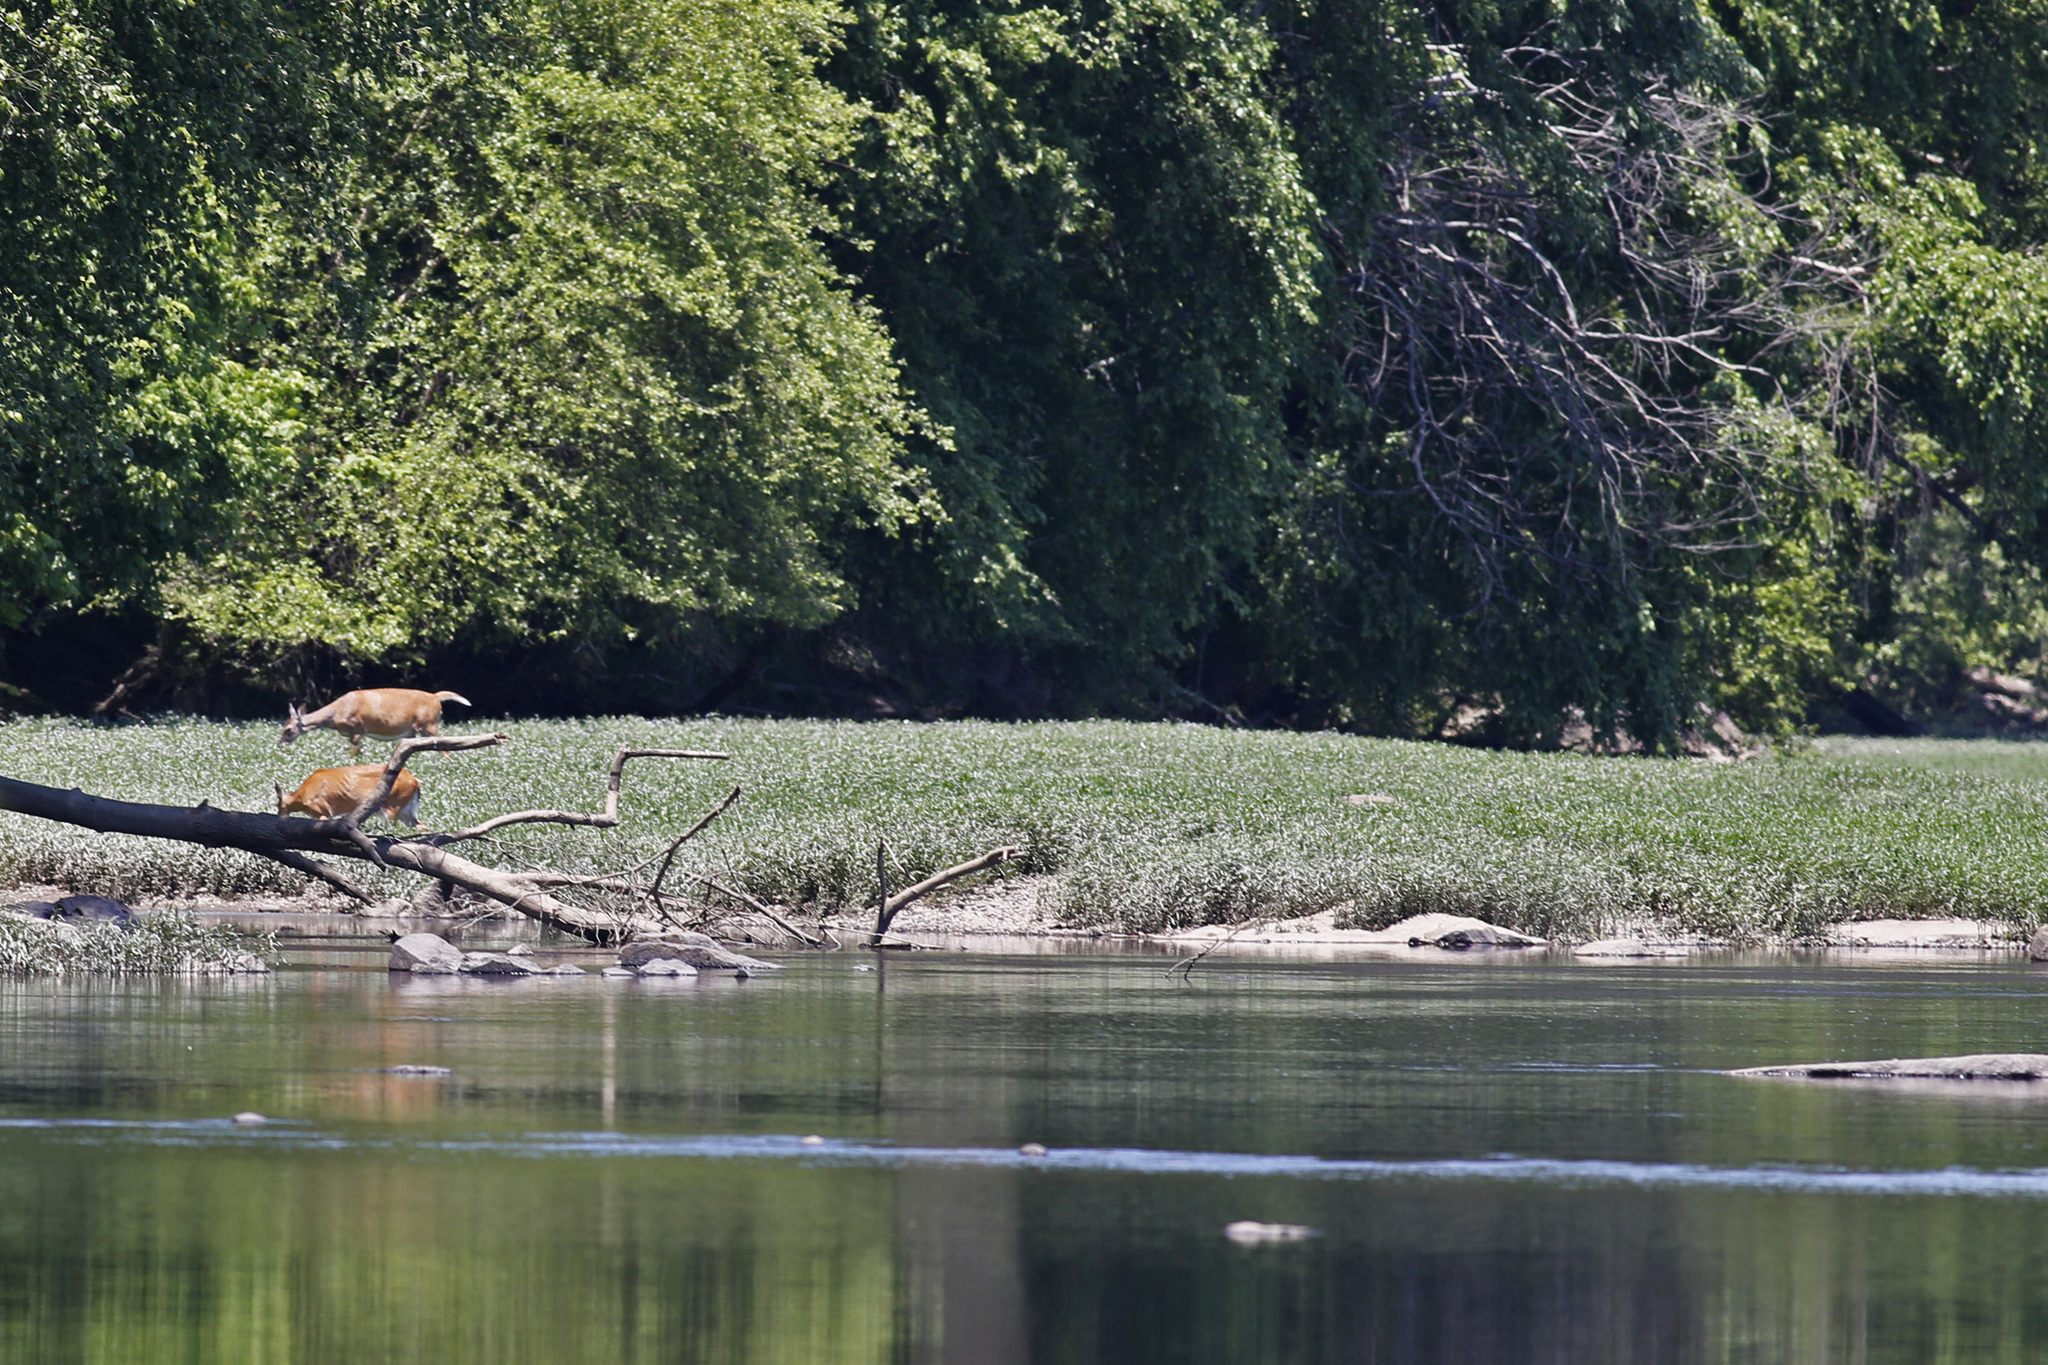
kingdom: Animalia
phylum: Chordata
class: Mammalia
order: Artiodactyla
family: Cervidae
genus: Odocoileus
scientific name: Odocoileus virginianus
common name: White-tailed deer
